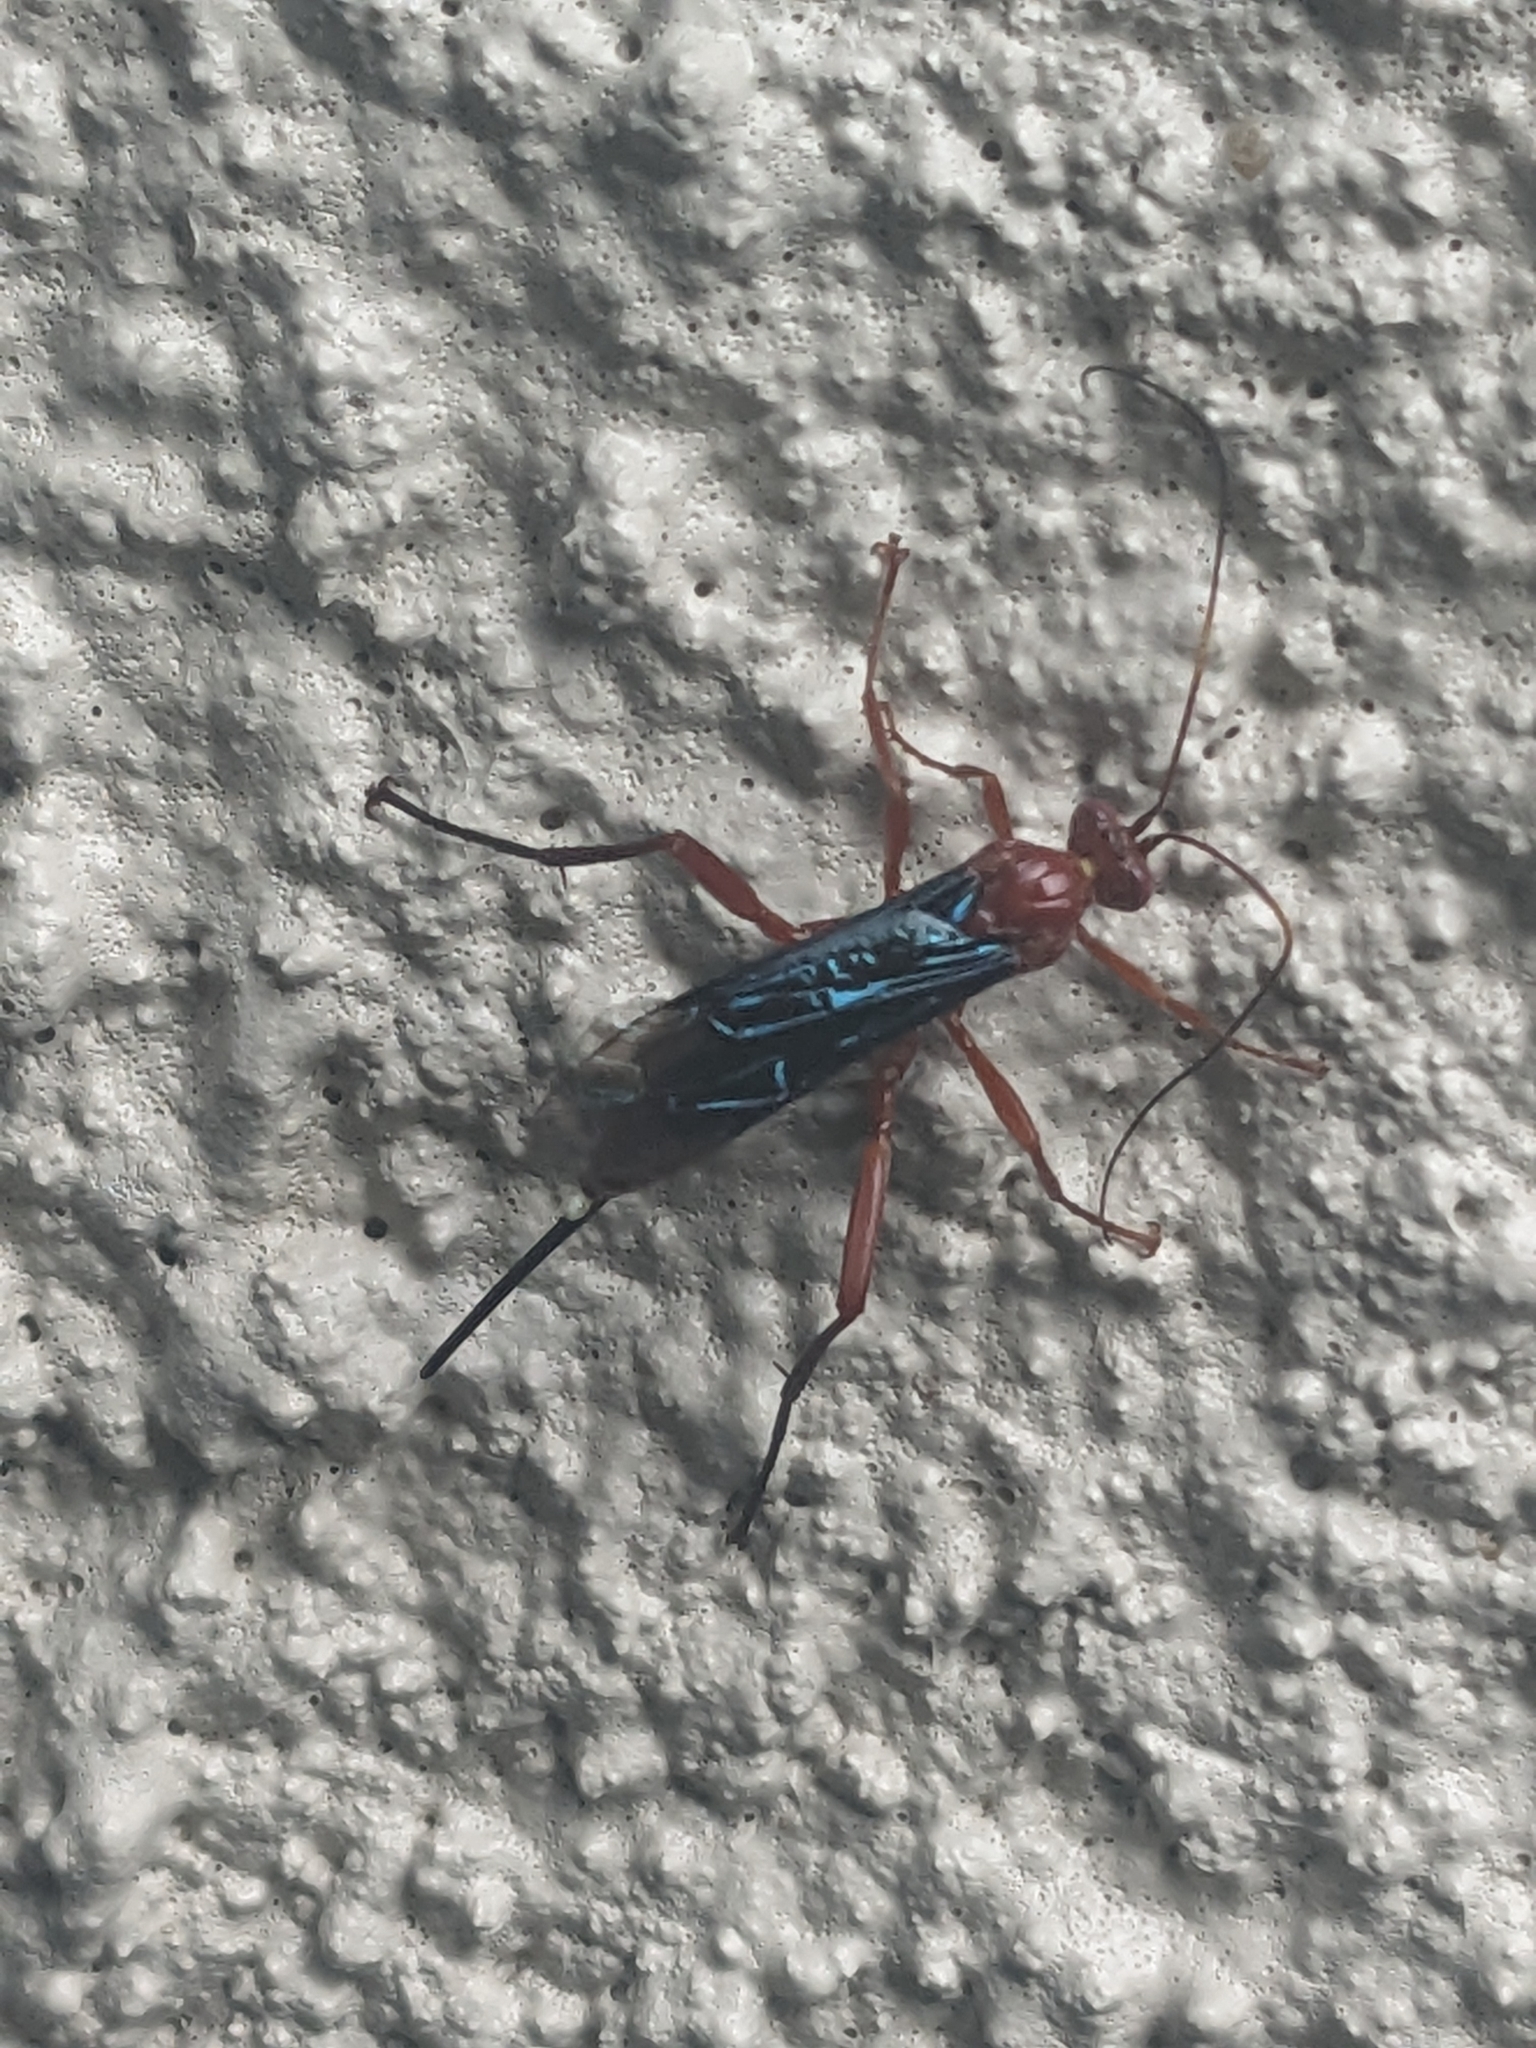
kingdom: Animalia
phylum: Arthropoda
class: Insecta
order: Hymenoptera
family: Ichneumonidae
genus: Lissopimpla
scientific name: Lissopimpla excelsa
